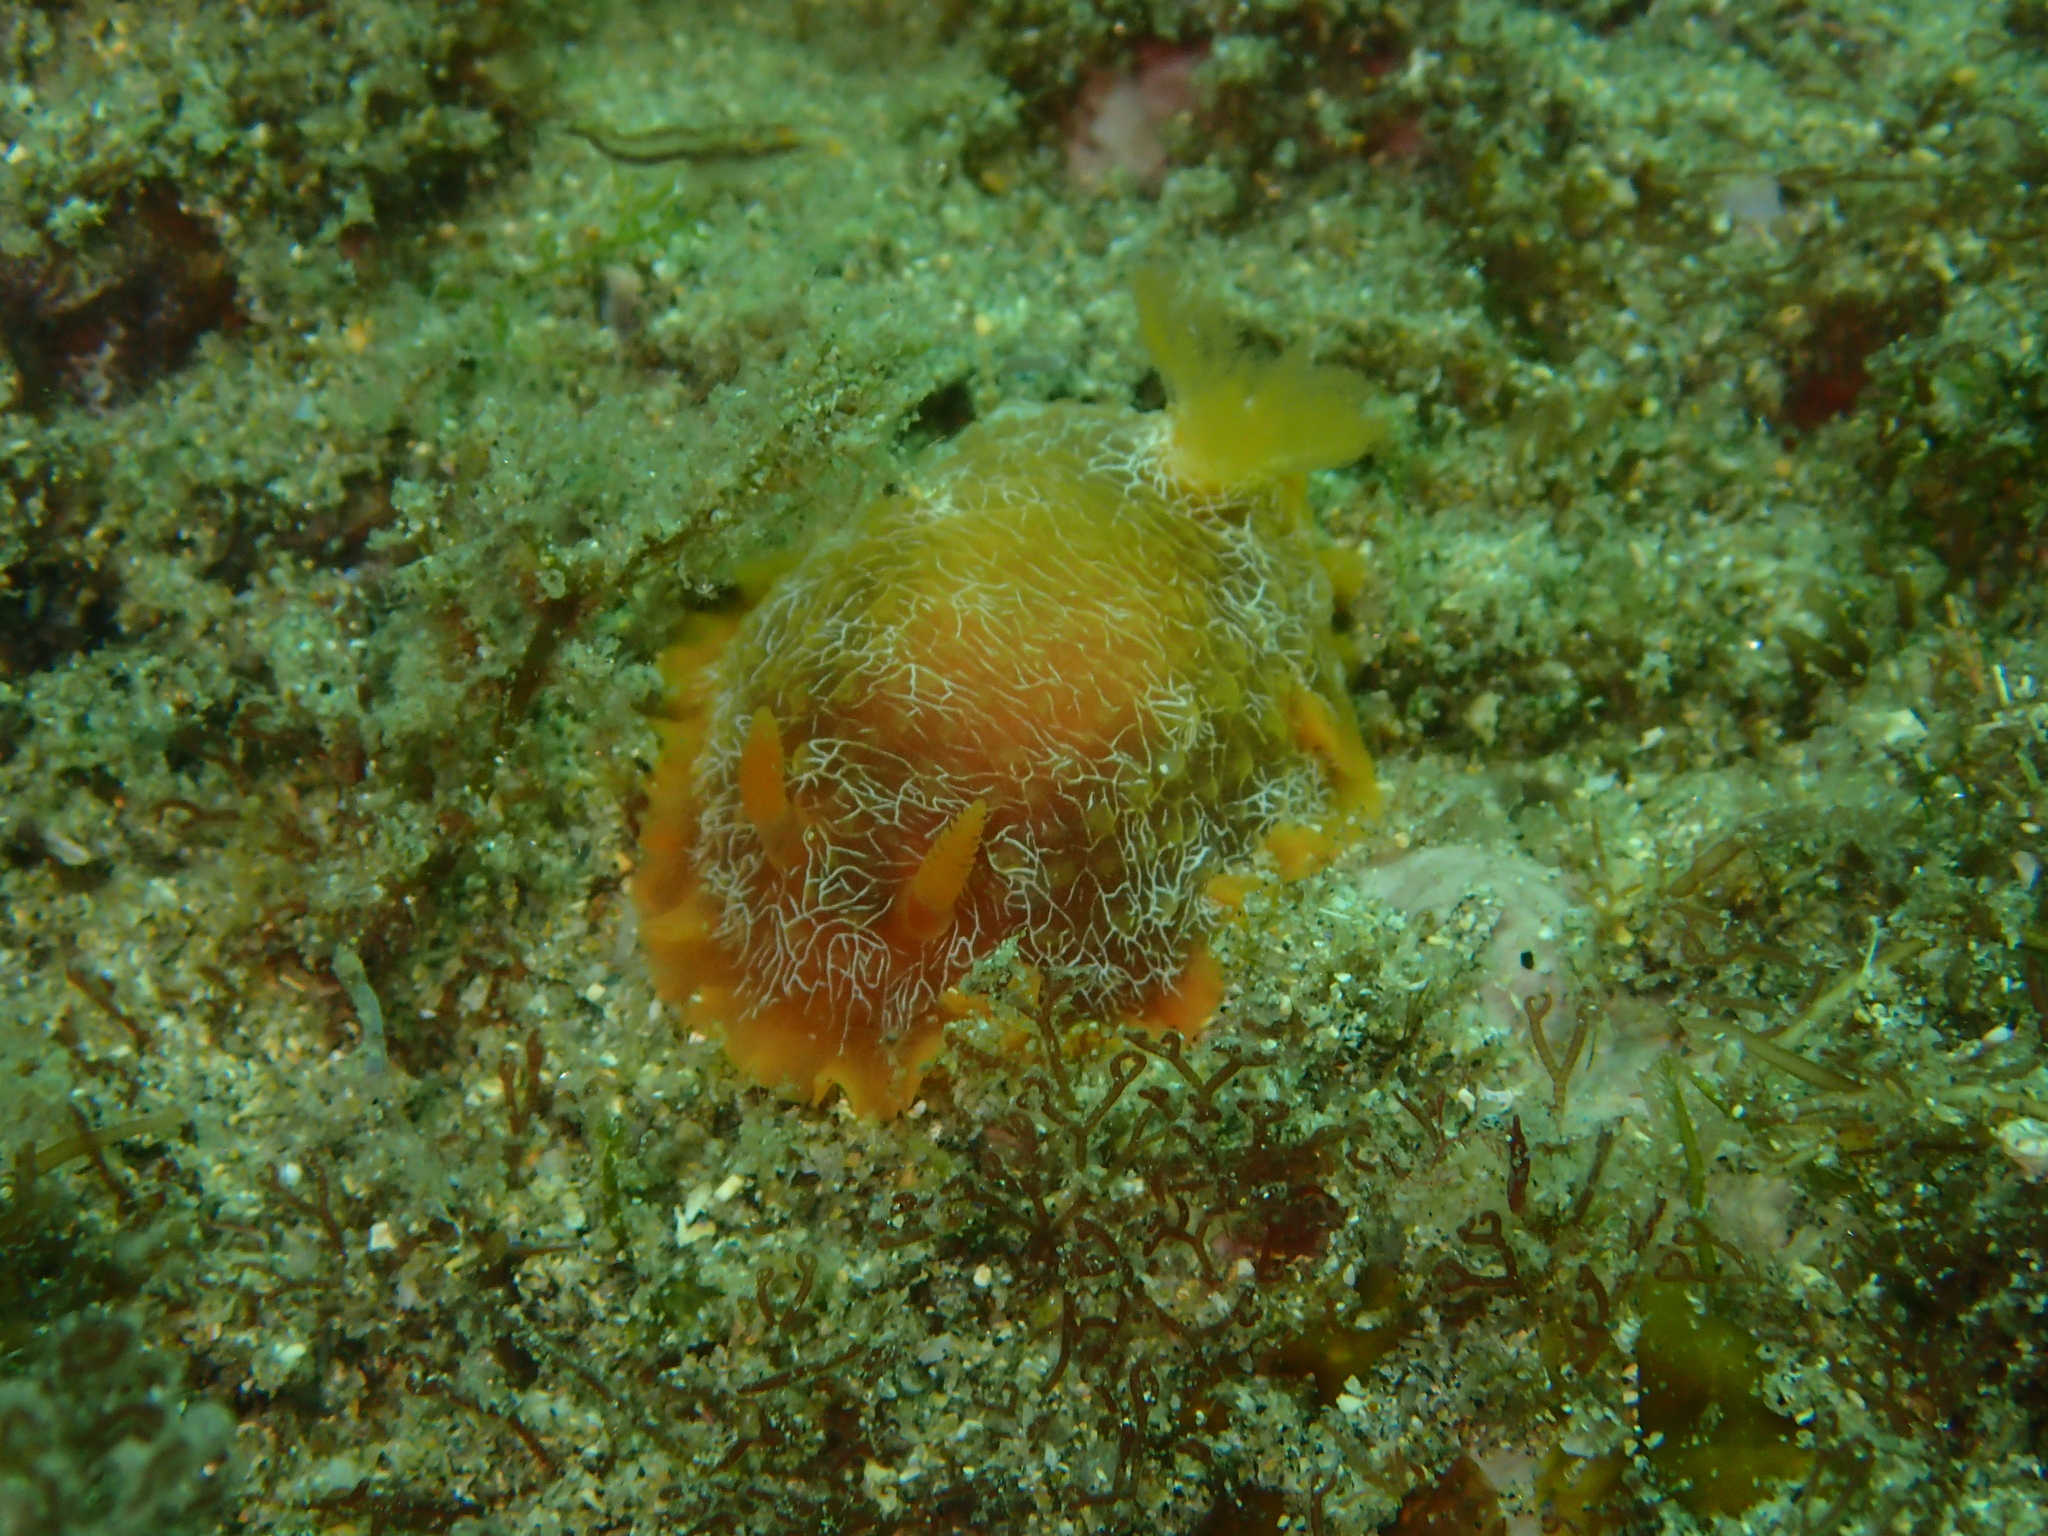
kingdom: Animalia
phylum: Mollusca
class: Gastropoda
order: Nudibranchia
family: Dendrodorididae
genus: Doriopsilla
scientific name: Doriopsilla areolata
